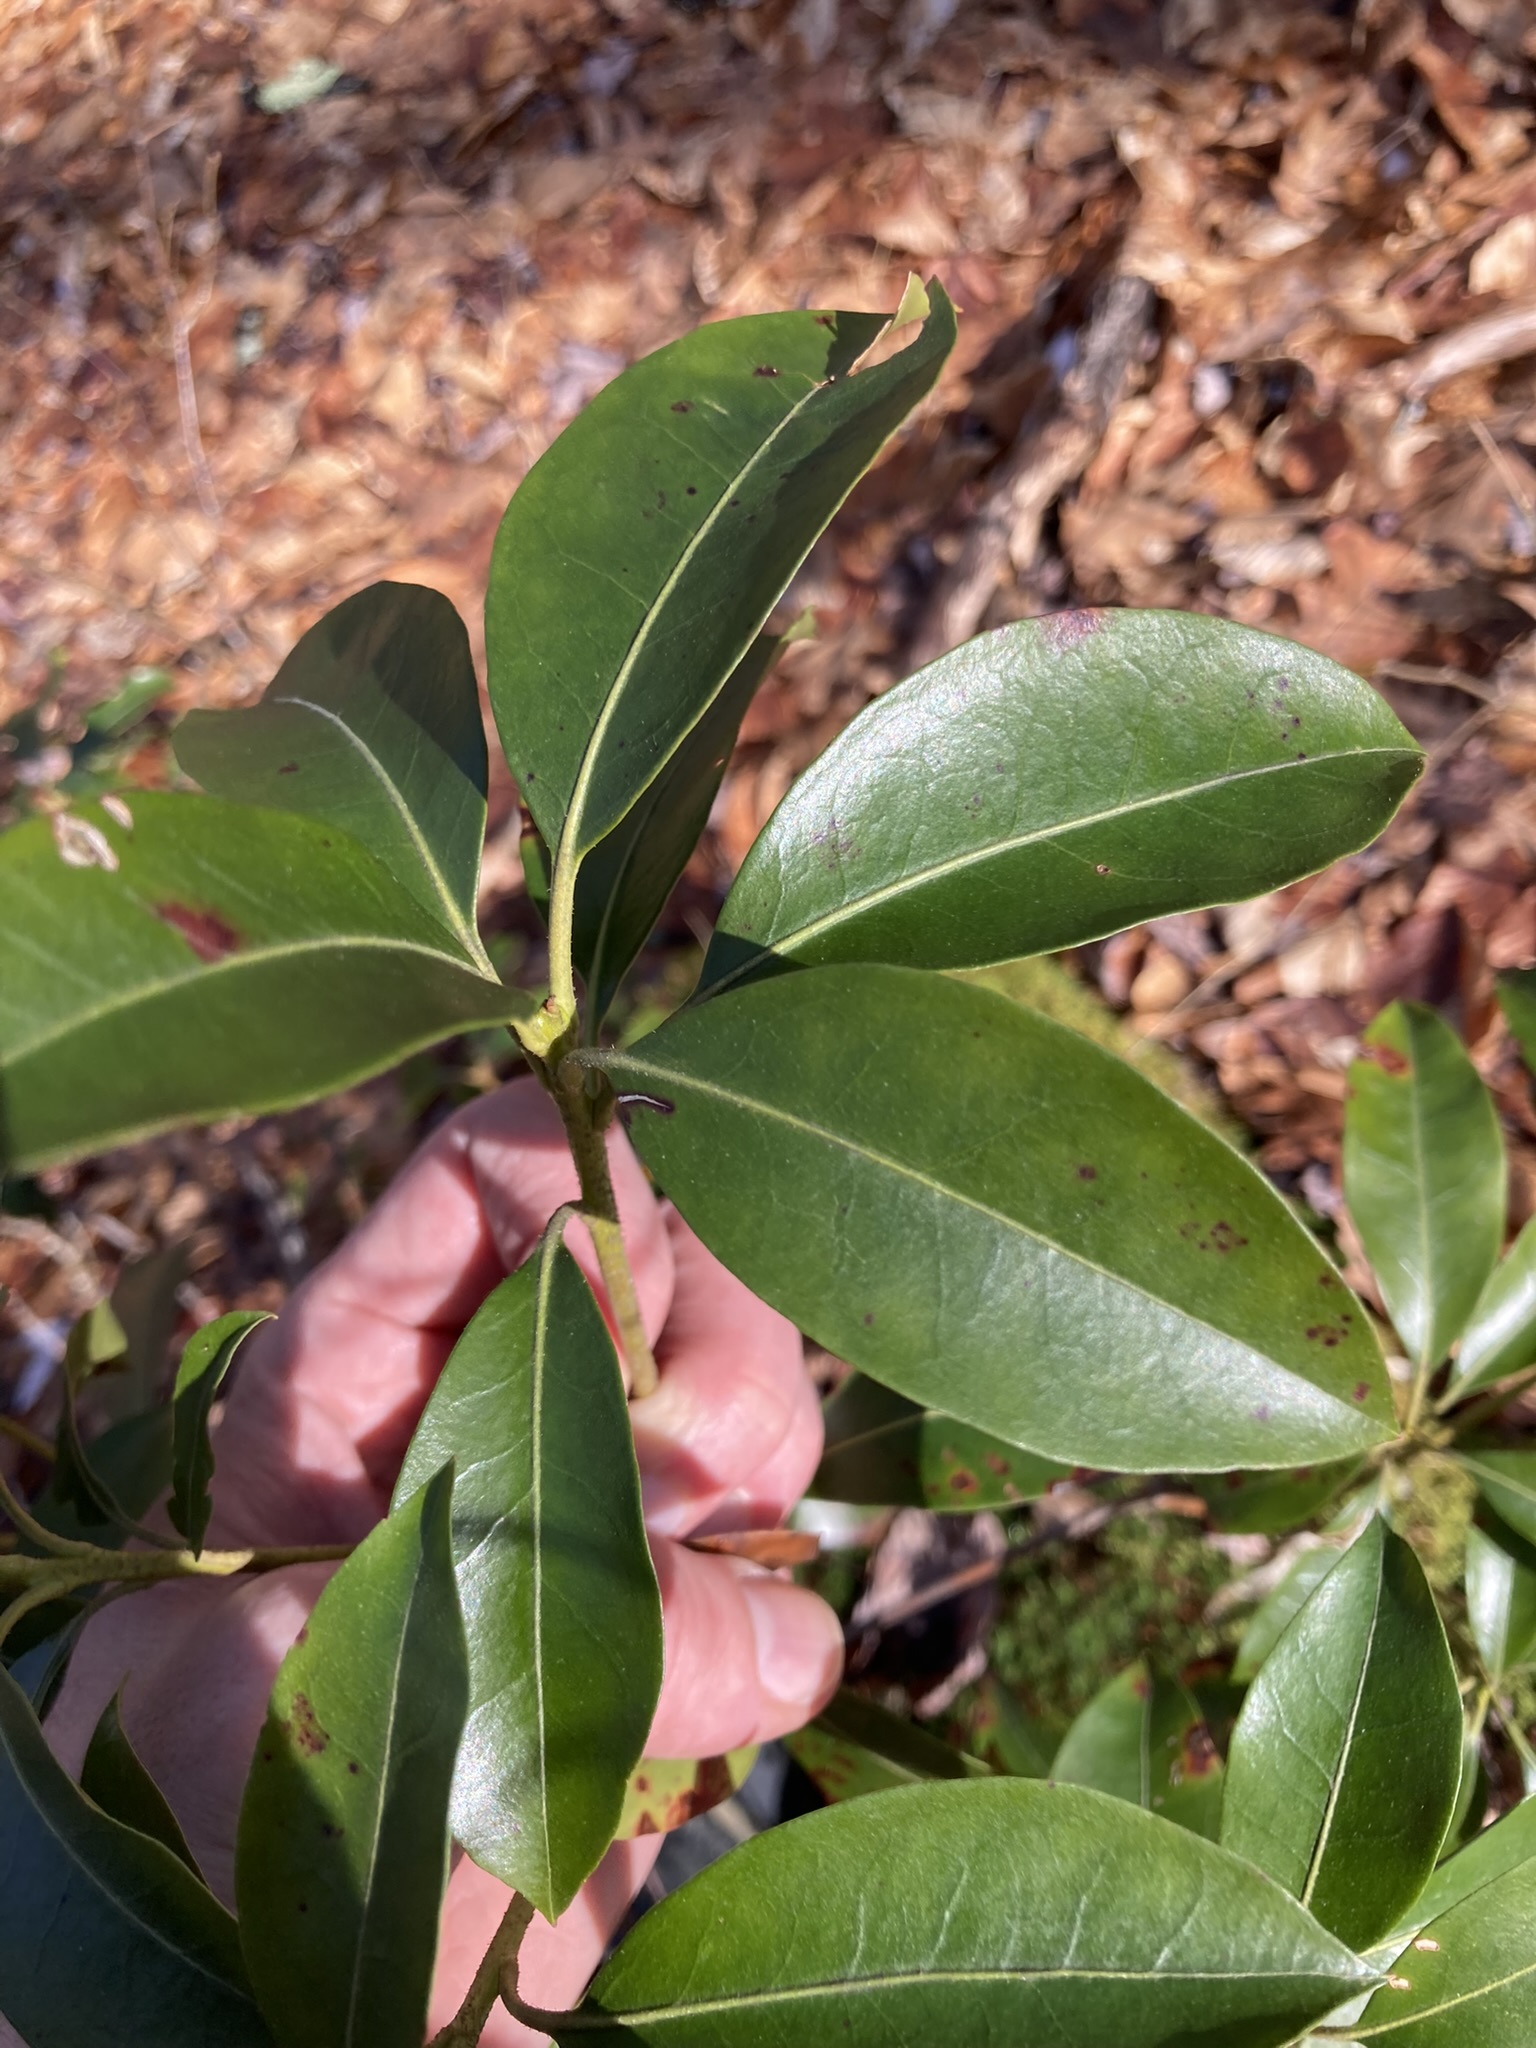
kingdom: Plantae
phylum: Tracheophyta
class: Magnoliopsida
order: Ericales
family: Ericaceae
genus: Kalmia
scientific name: Kalmia latifolia
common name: Mountain-laurel
